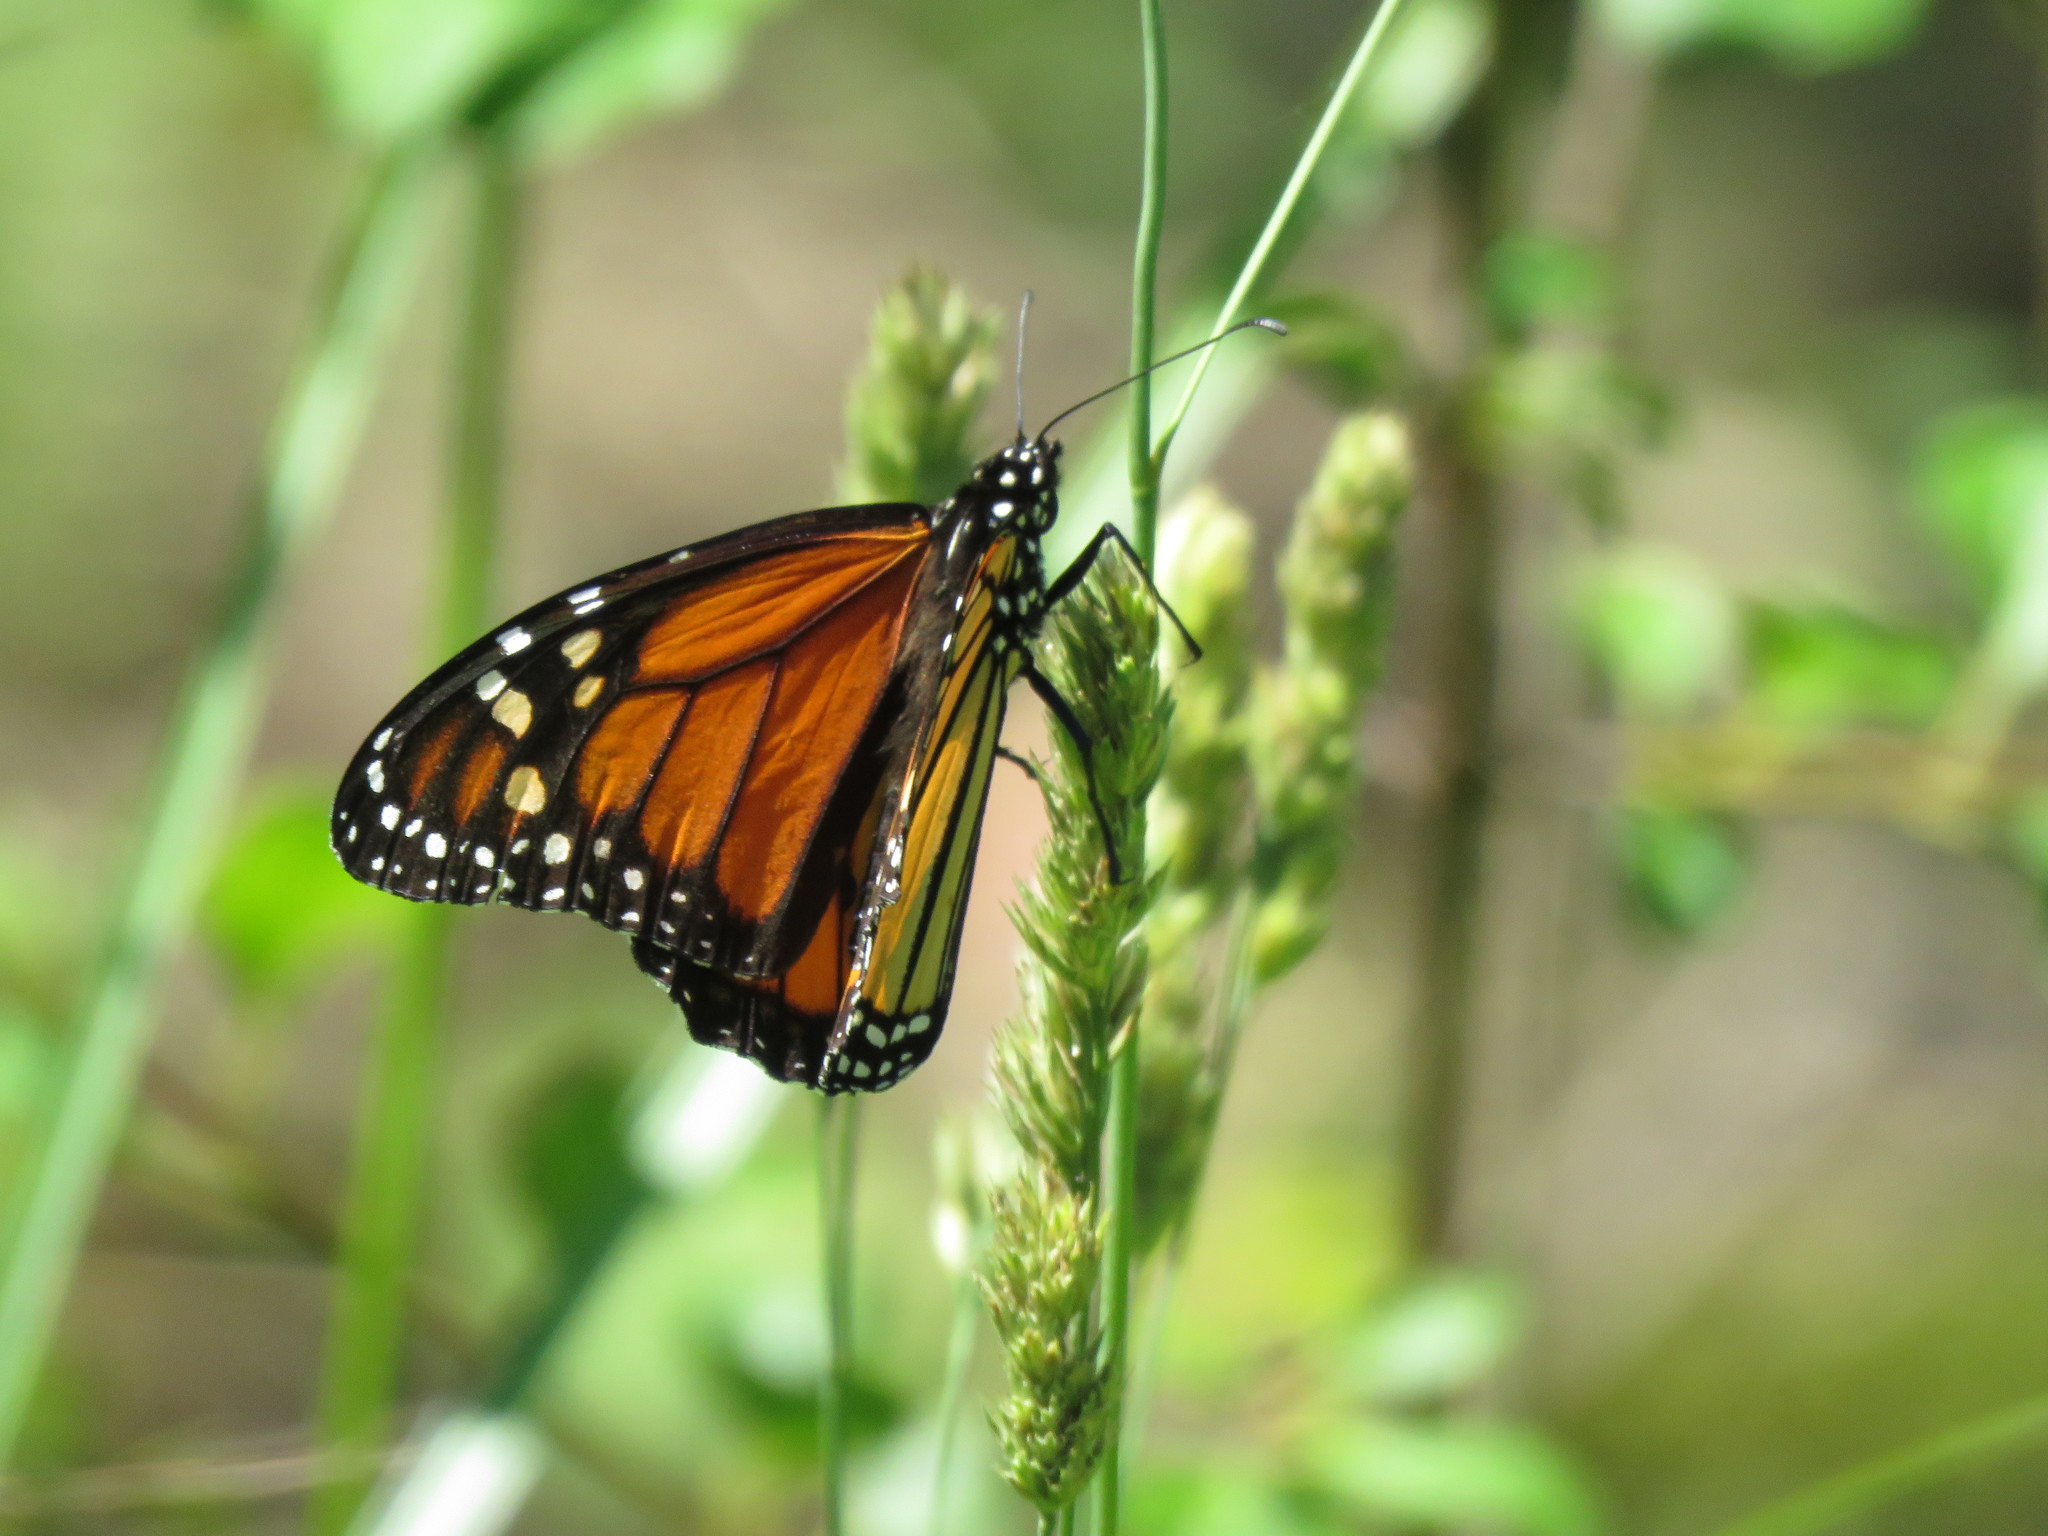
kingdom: Animalia
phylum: Arthropoda
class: Insecta
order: Lepidoptera
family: Nymphalidae
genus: Danaus
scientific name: Danaus plexippus
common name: Monarch
